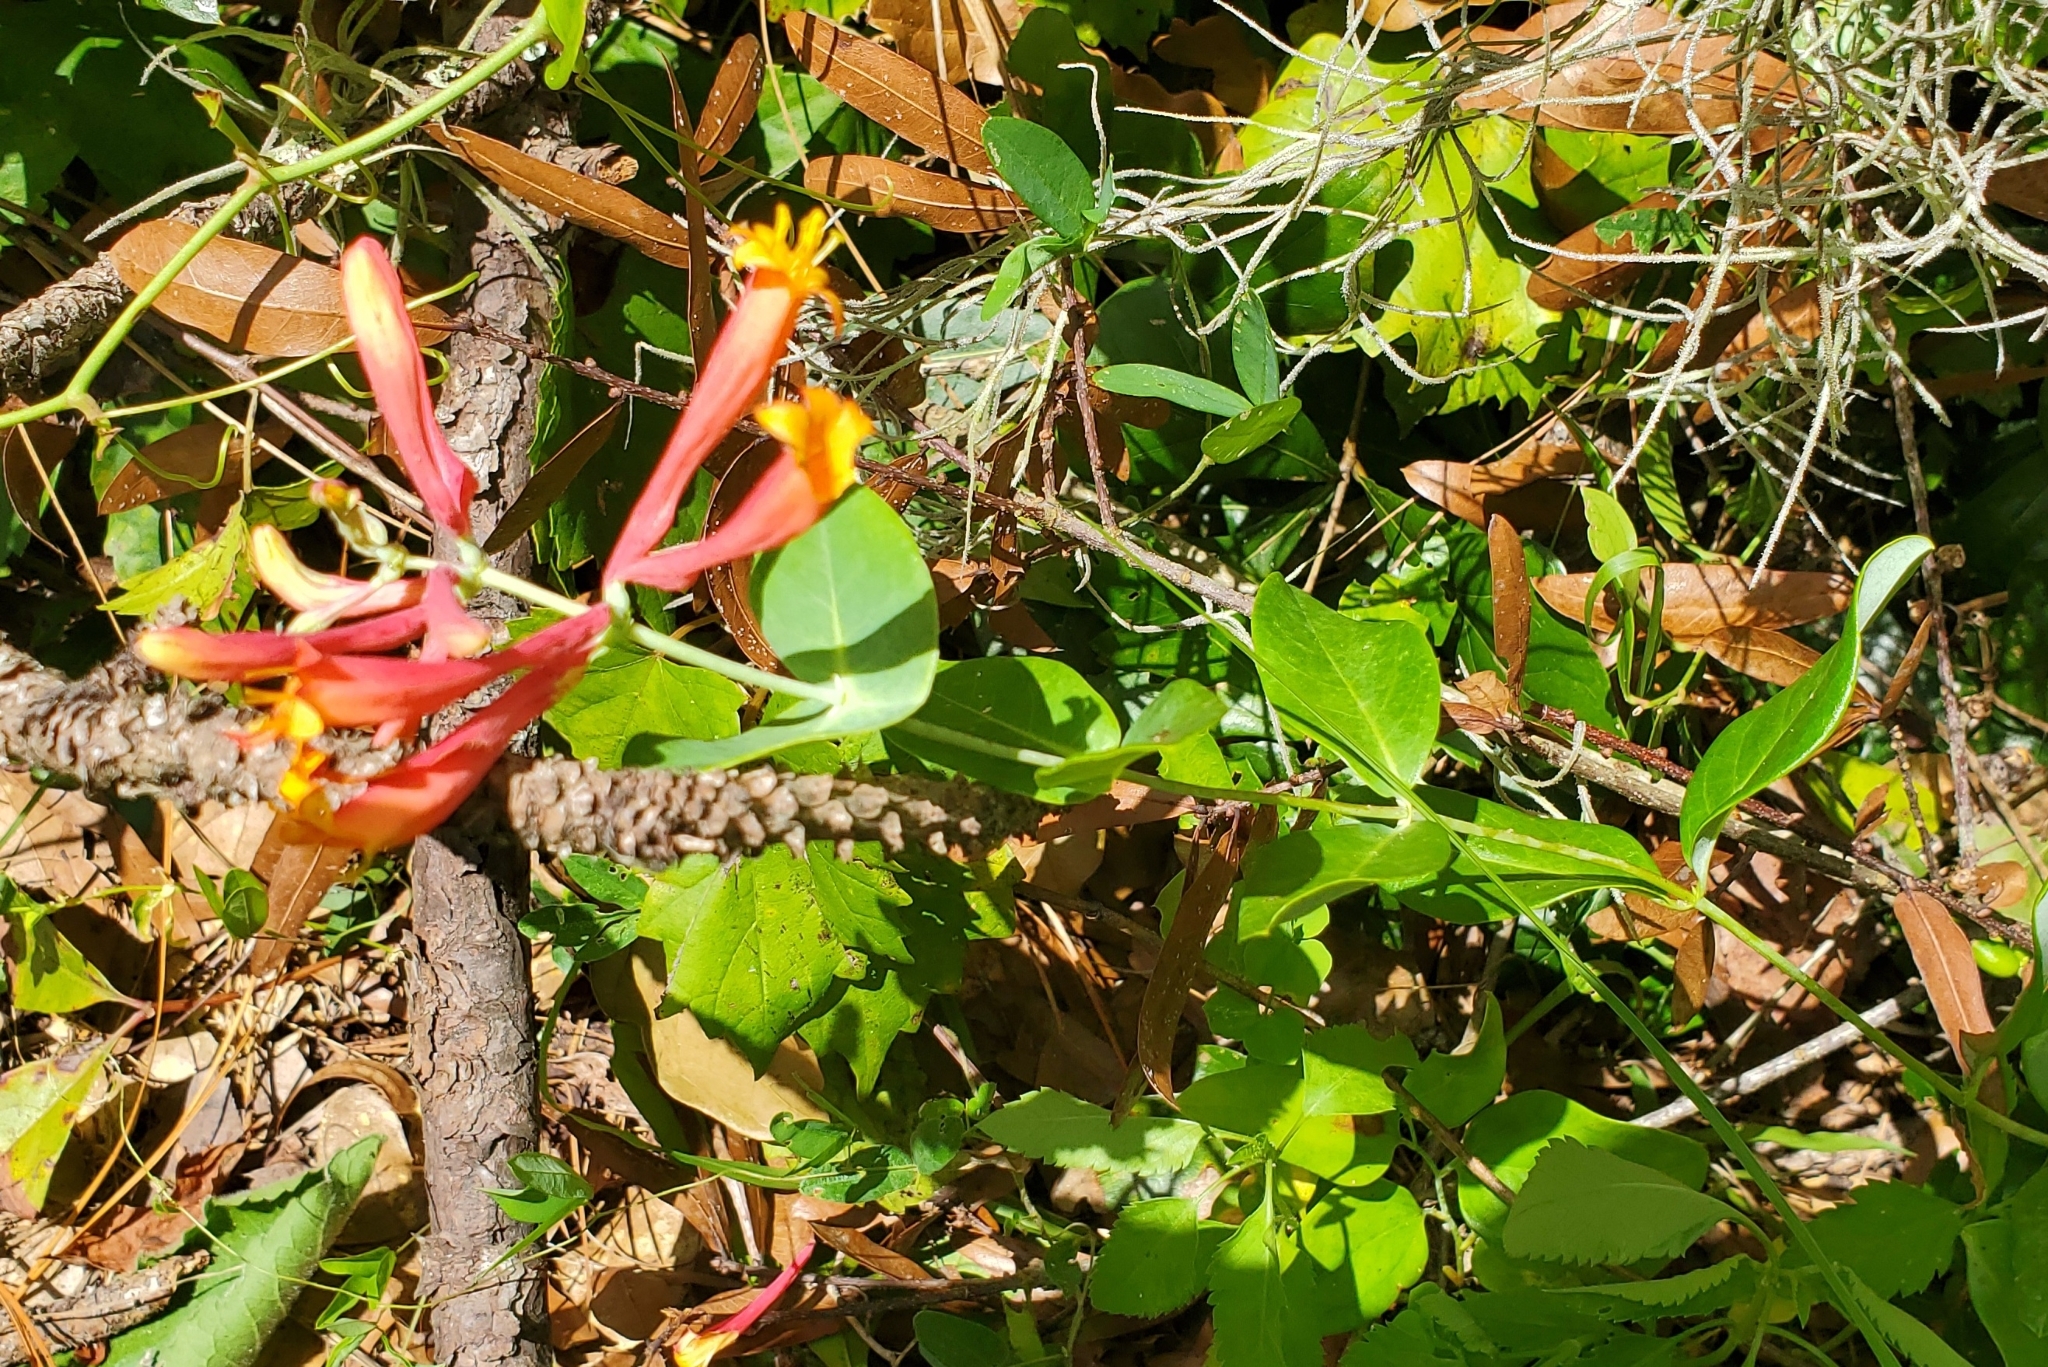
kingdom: Plantae
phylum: Tracheophyta
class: Magnoliopsida
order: Dipsacales
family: Caprifoliaceae
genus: Lonicera
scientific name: Lonicera sempervirens
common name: Coral honeysuckle
